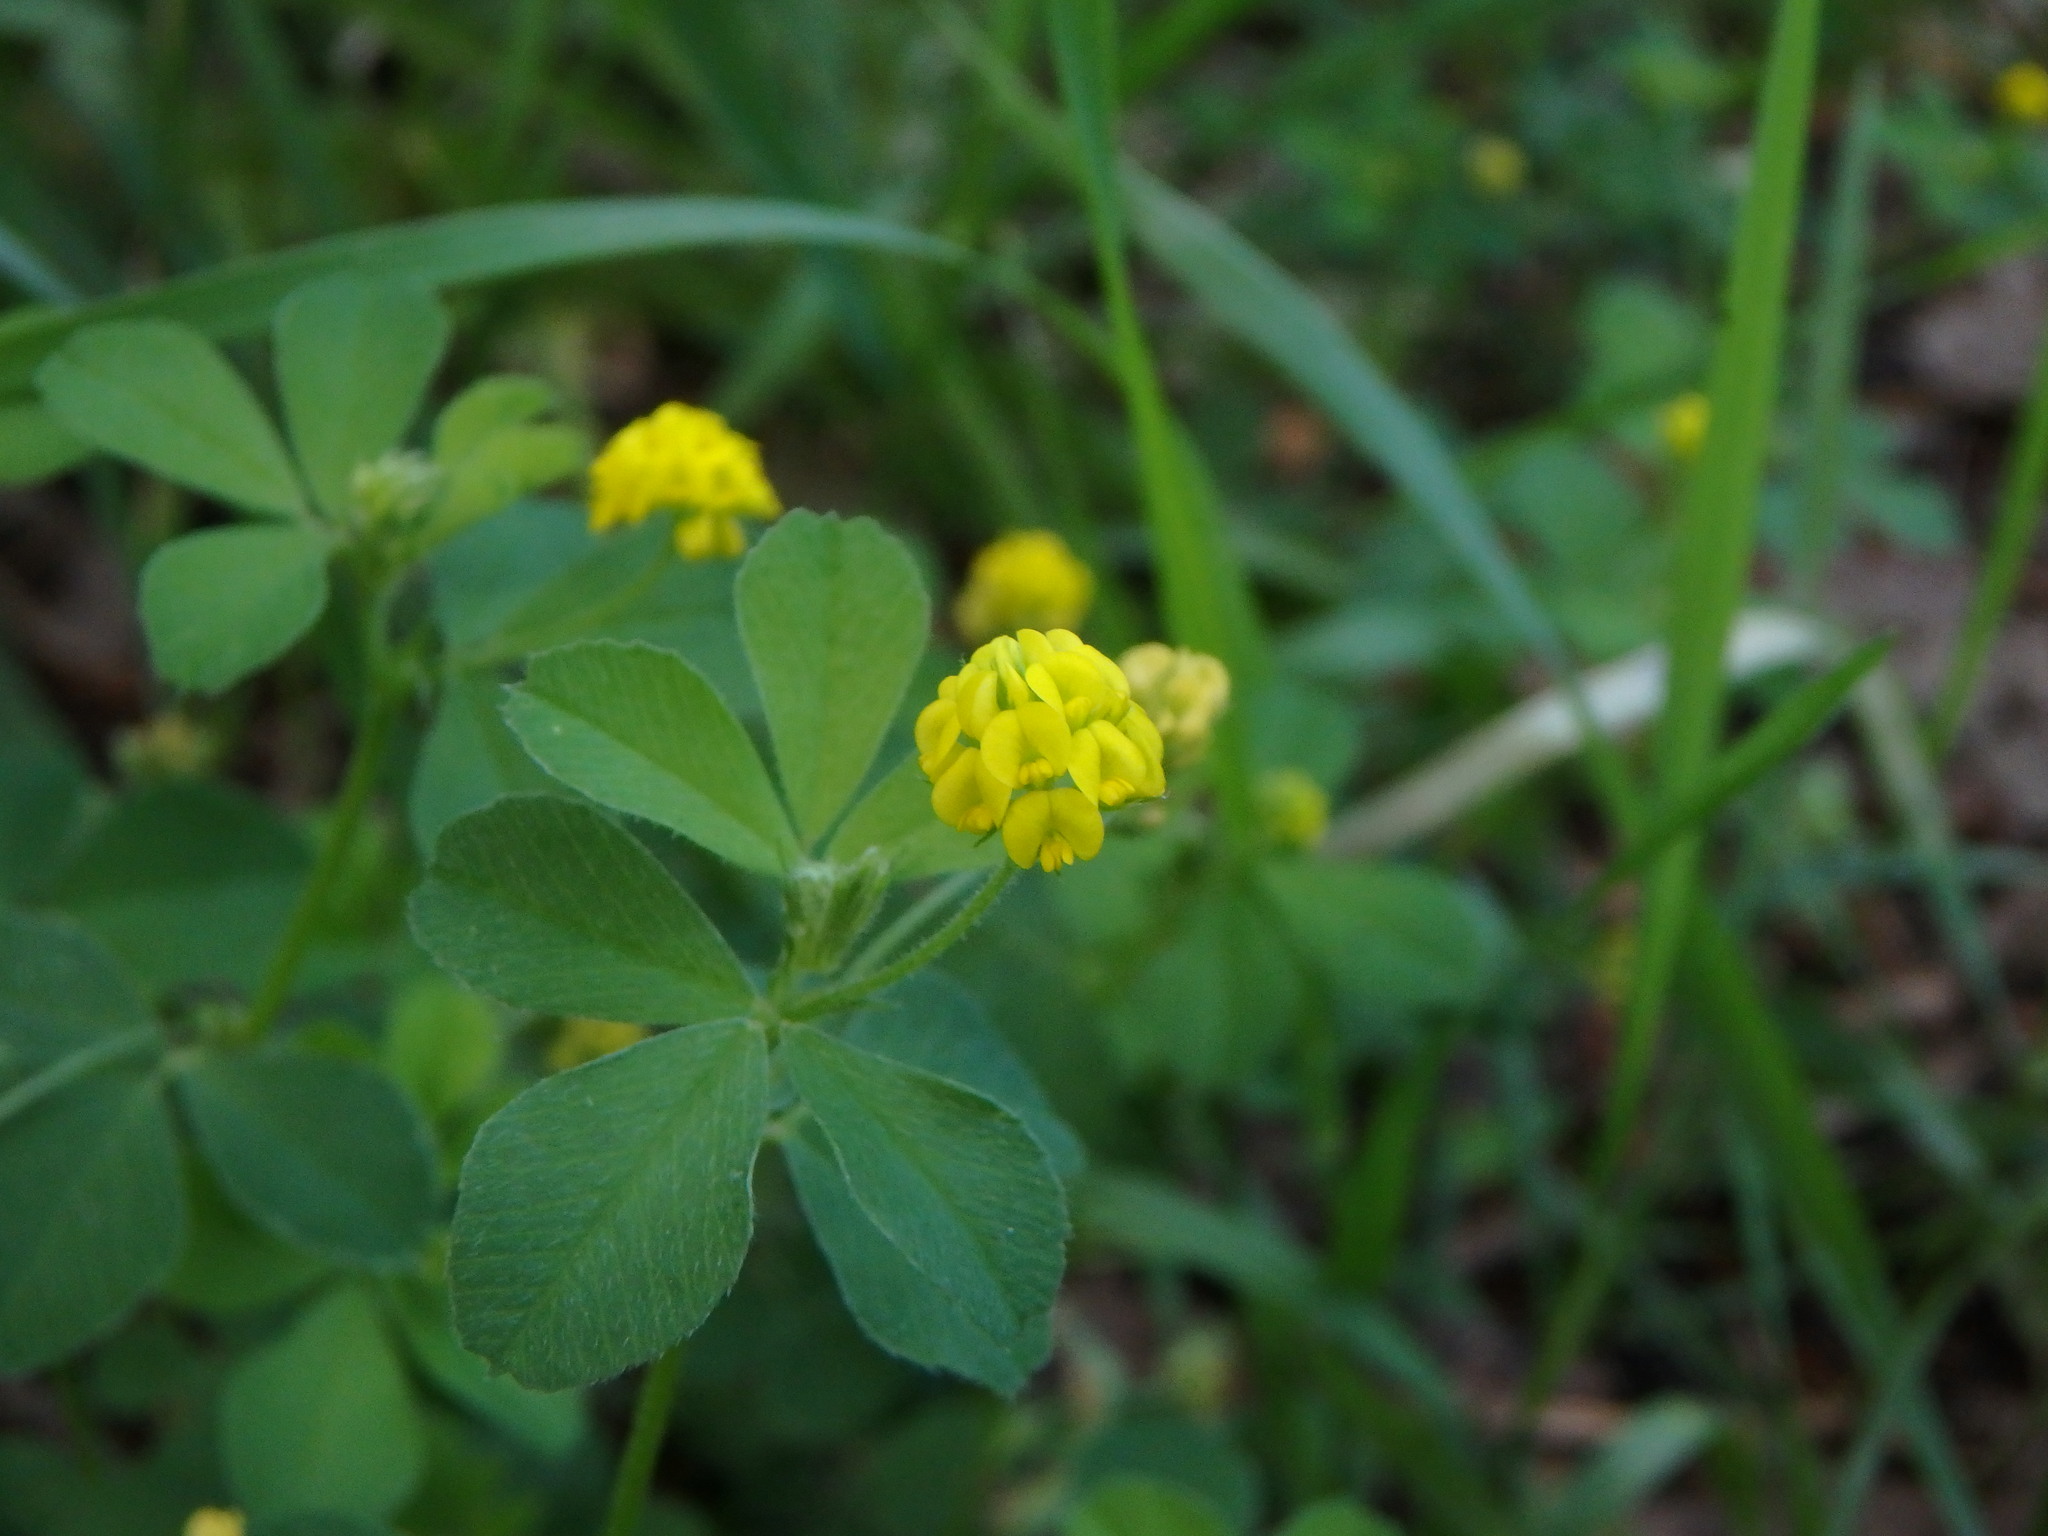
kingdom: Plantae
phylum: Tracheophyta
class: Magnoliopsida
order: Fabales
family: Fabaceae
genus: Medicago
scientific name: Medicago lupulina
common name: Black medick
